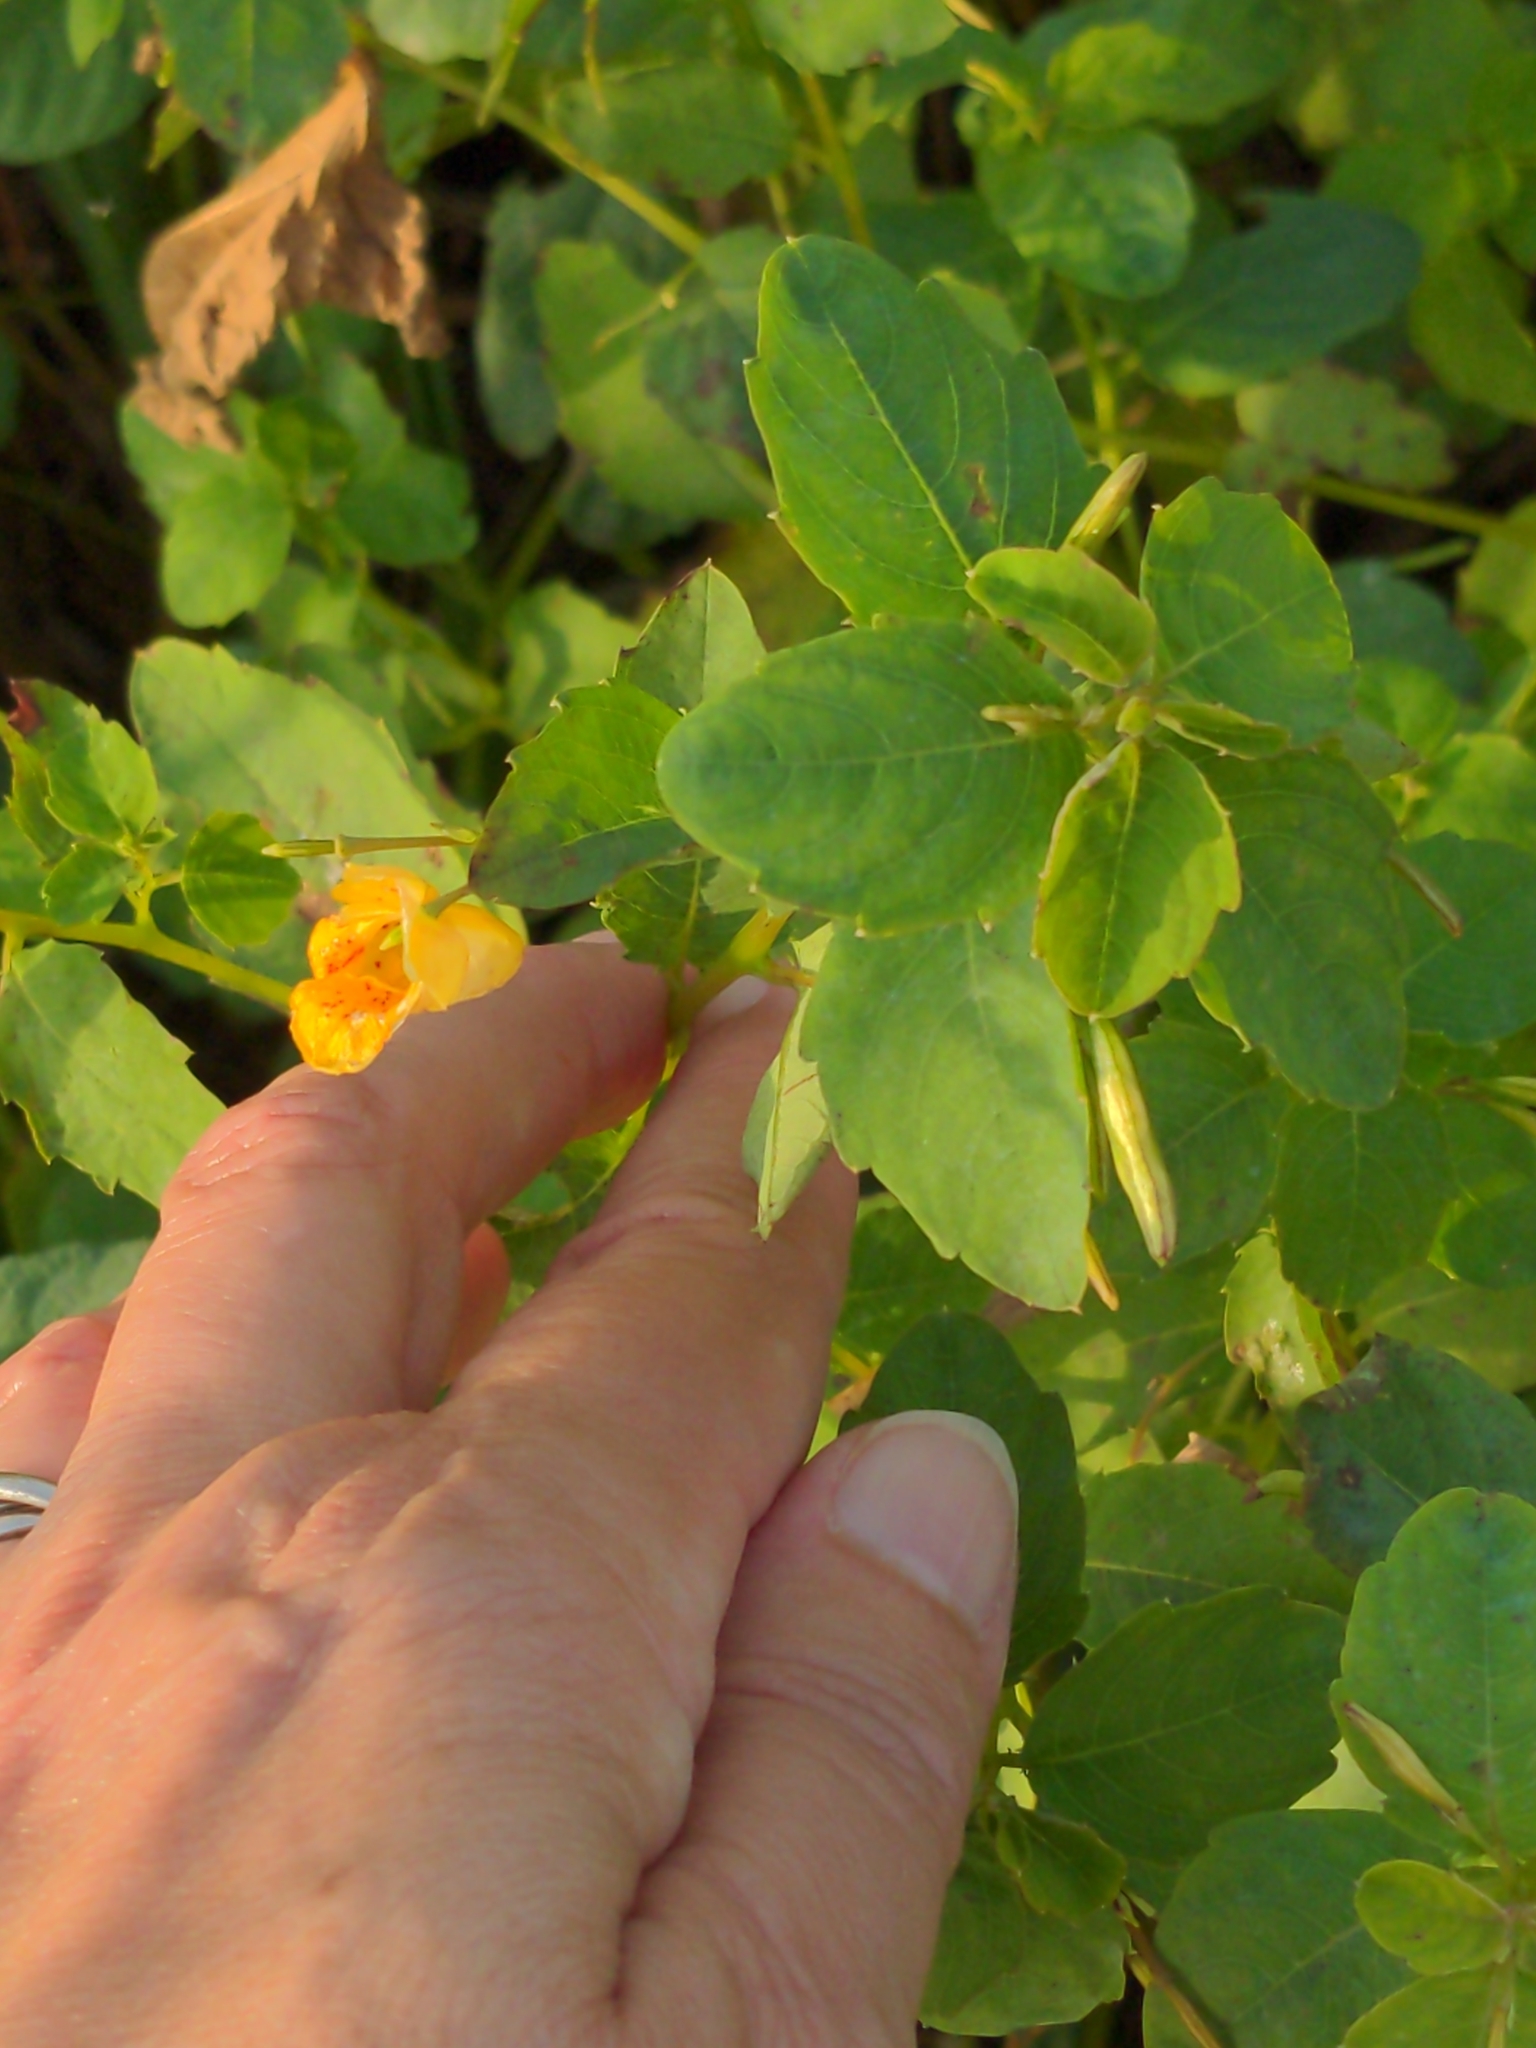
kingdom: Plantae
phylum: Tracheophyta
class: Magnoliopsida
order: Ericales
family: Balsaminaceae
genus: Impatiens
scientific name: Impatiens capensis
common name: Orange balsam
